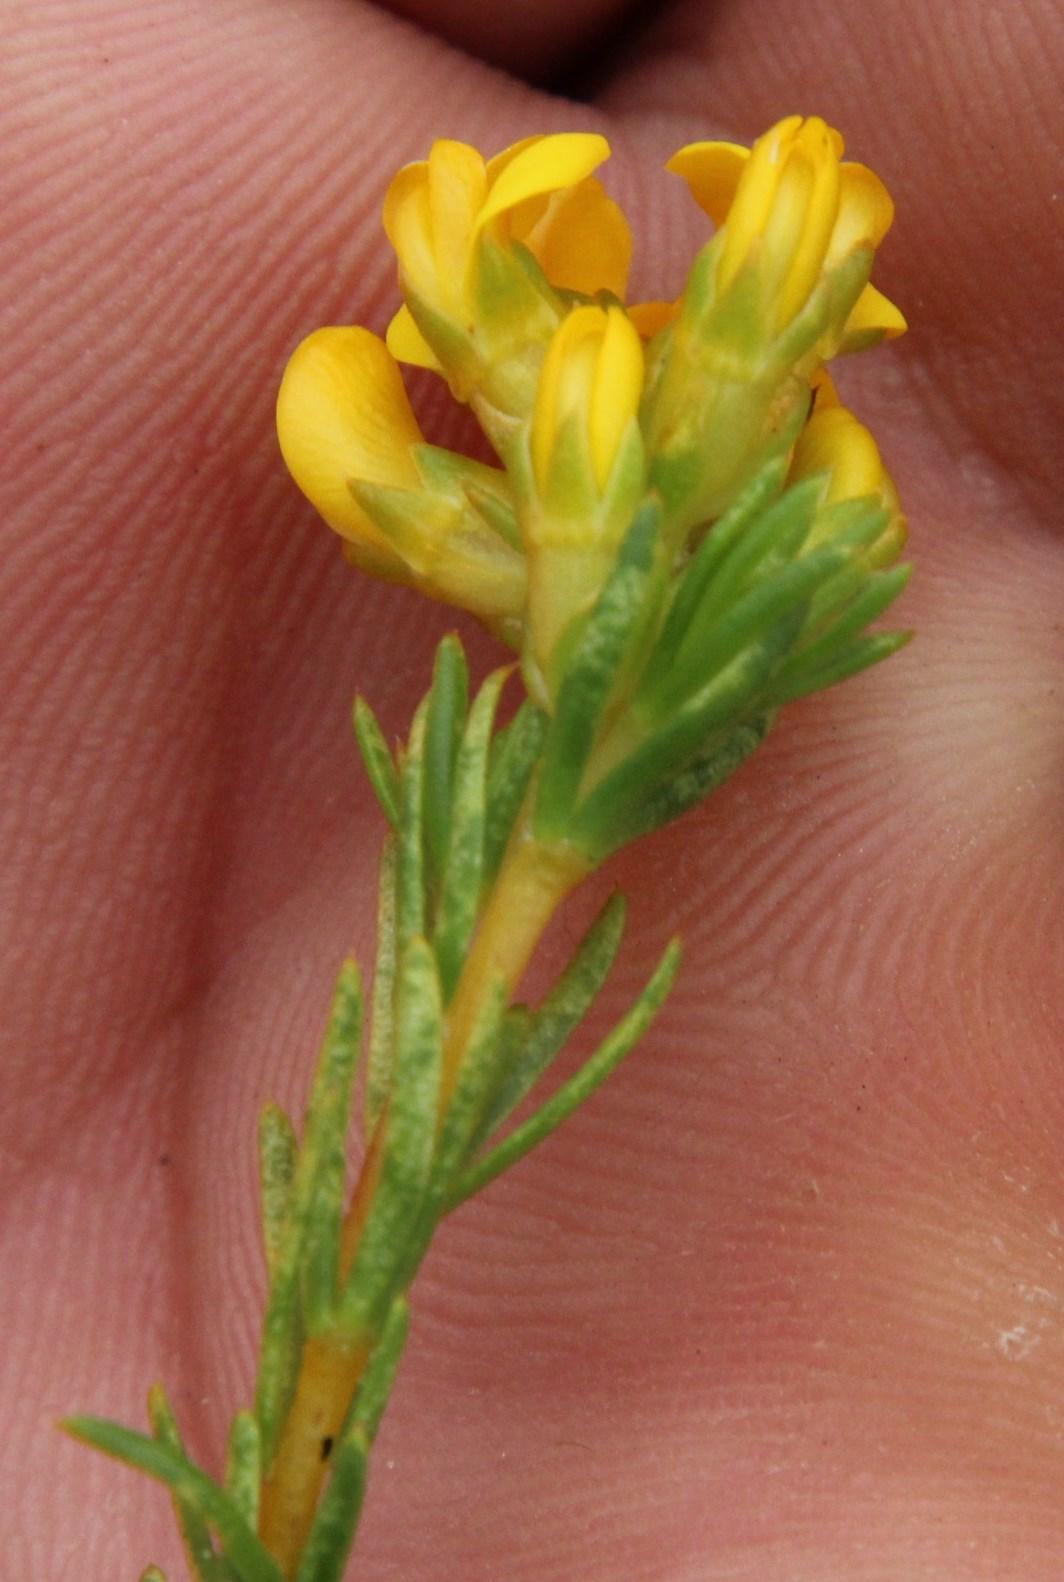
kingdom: Plantae
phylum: Tracheophyta
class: Magnoliopsida
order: Fabales
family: Fabaceae
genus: Aspalathus
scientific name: Aspalathus callosa
